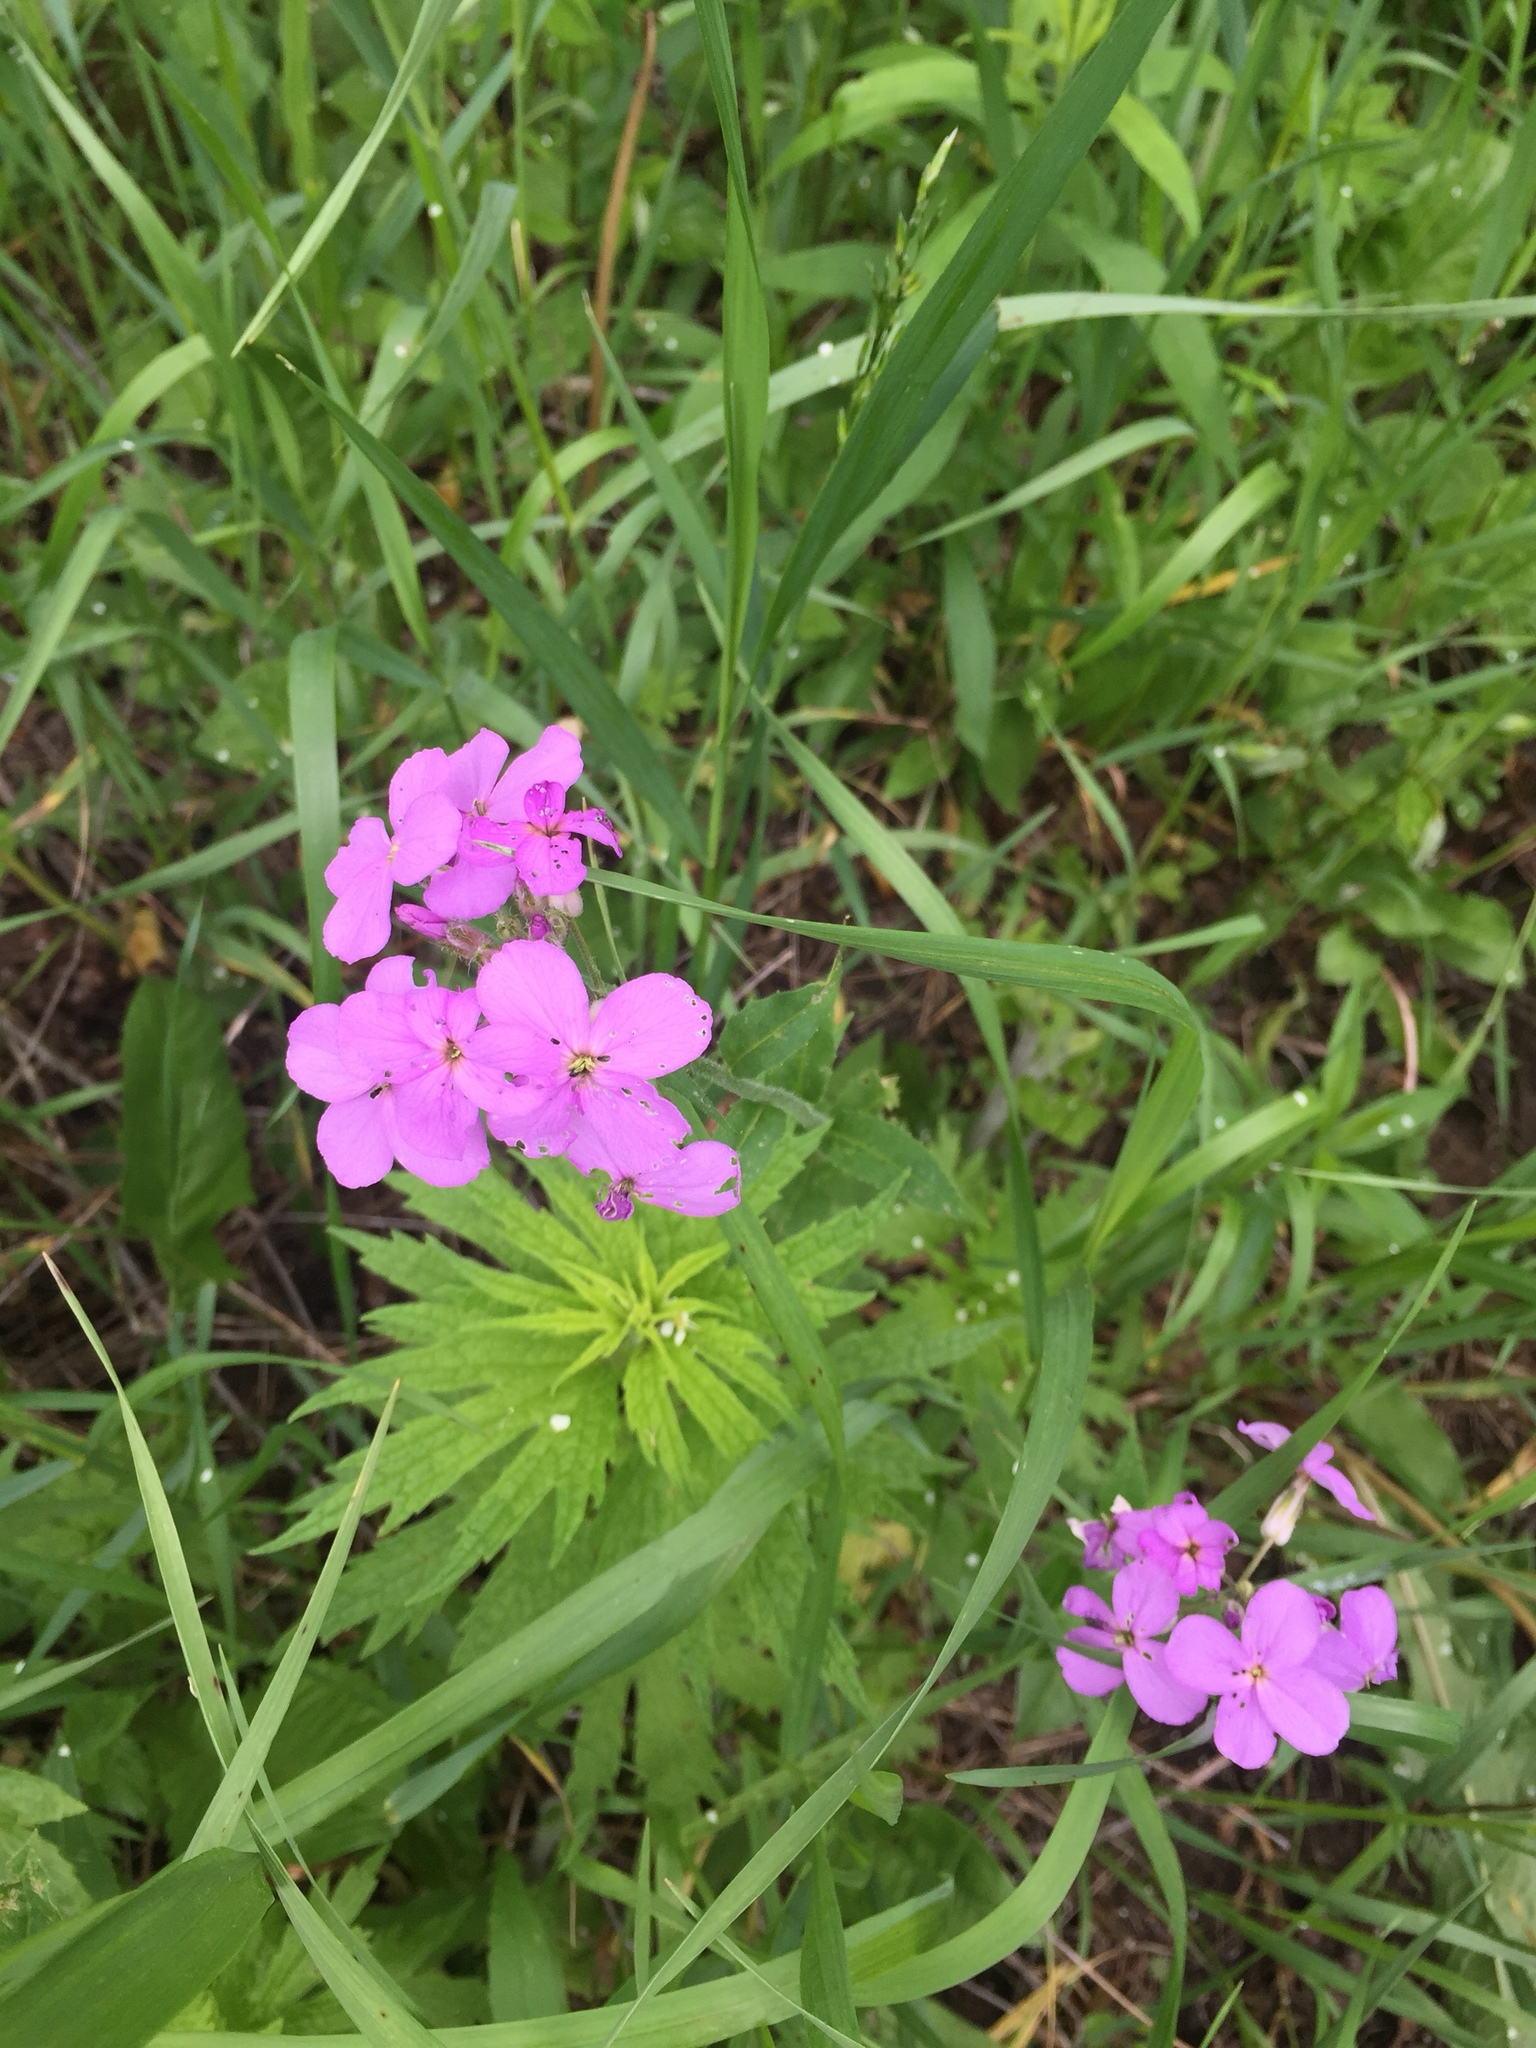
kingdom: Plantae
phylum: Tracheophyta
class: Magnoliopsida
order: Brassicales
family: Brassicaceae
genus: Hesperis
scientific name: Hesperis matronalis
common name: Dame's-violet
